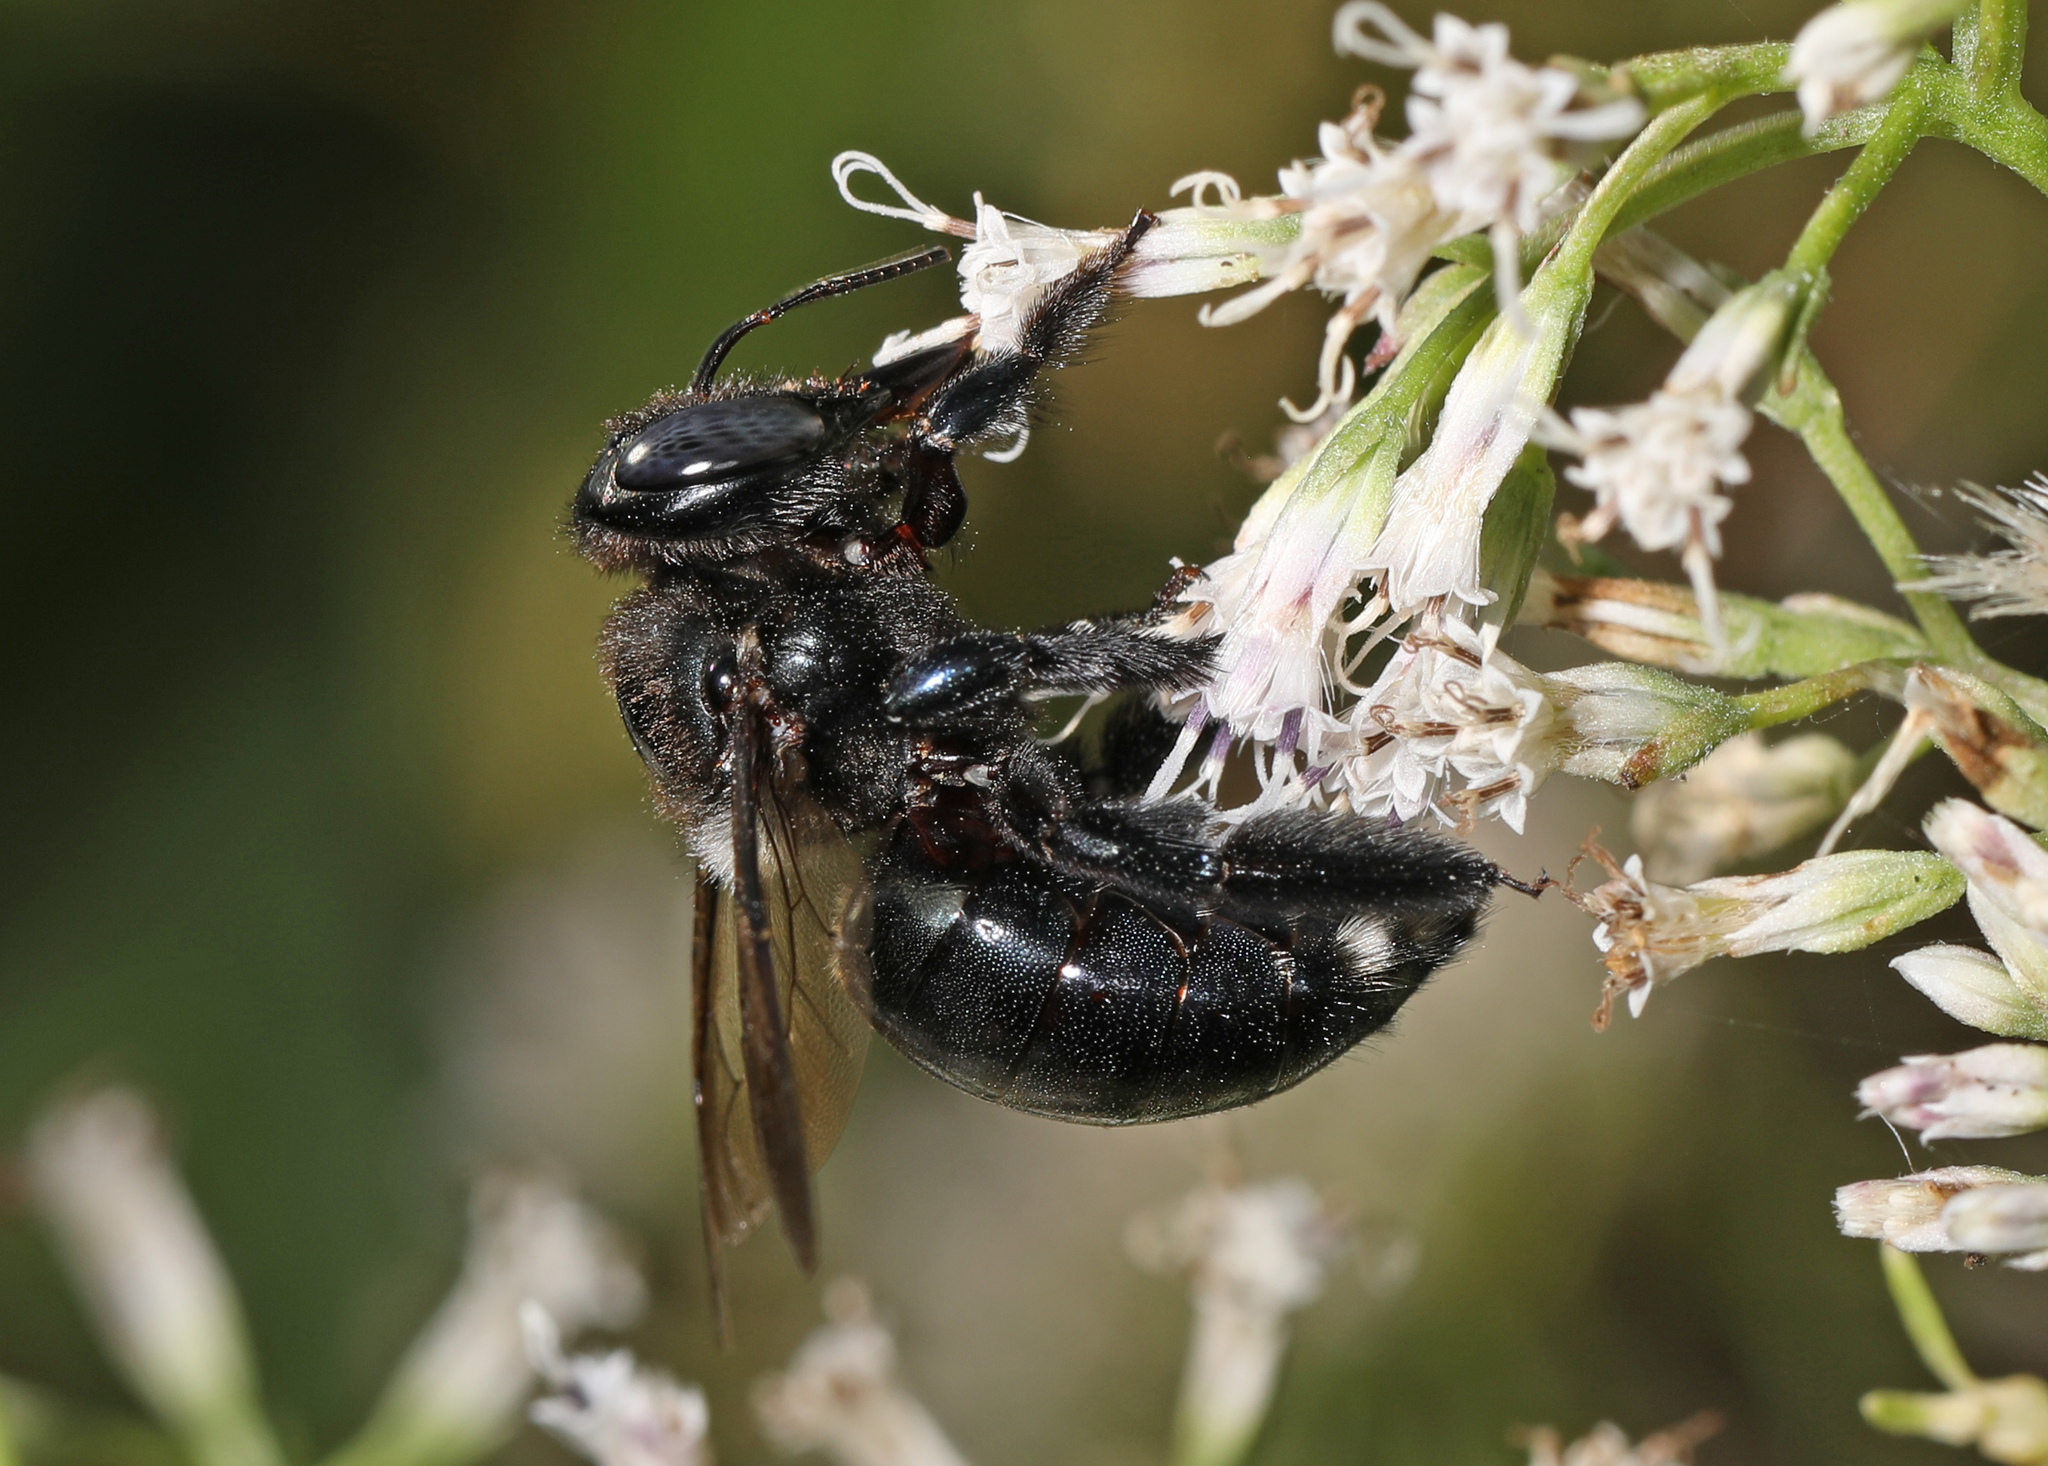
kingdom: Animalia
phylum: Arthropoda
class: Insecta
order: Hymenoptera
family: Apidae
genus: Xylocopa
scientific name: Xylocopa micans
